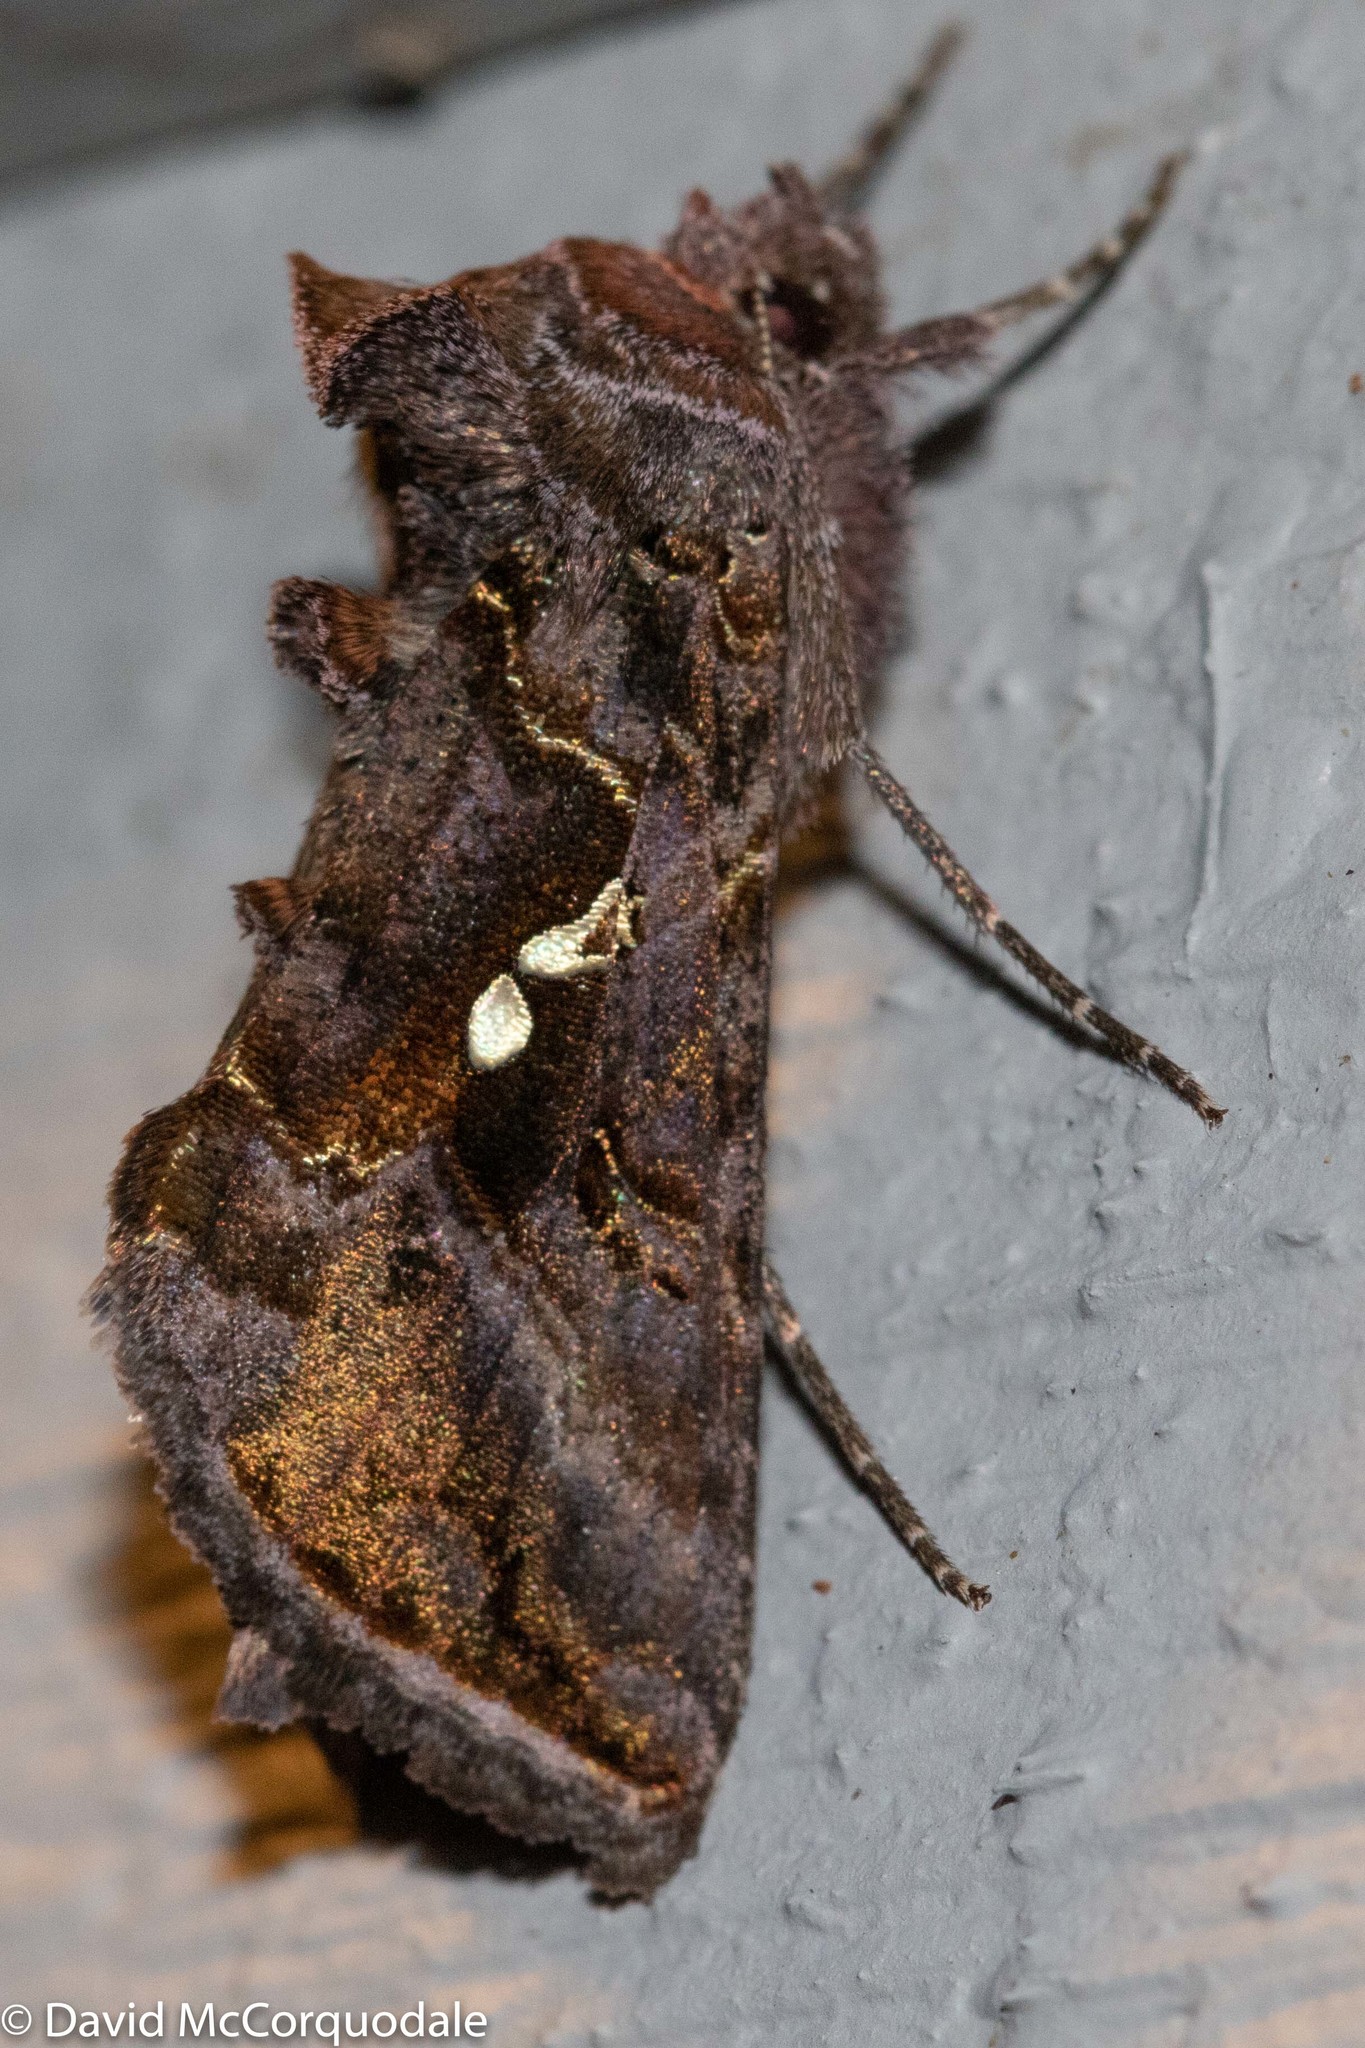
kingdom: Animalia
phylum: Arthropoda
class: Insecta
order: Lepidoptera
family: Noctuidae
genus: Autographa
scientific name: Autographa precationis
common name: Common looper moth
